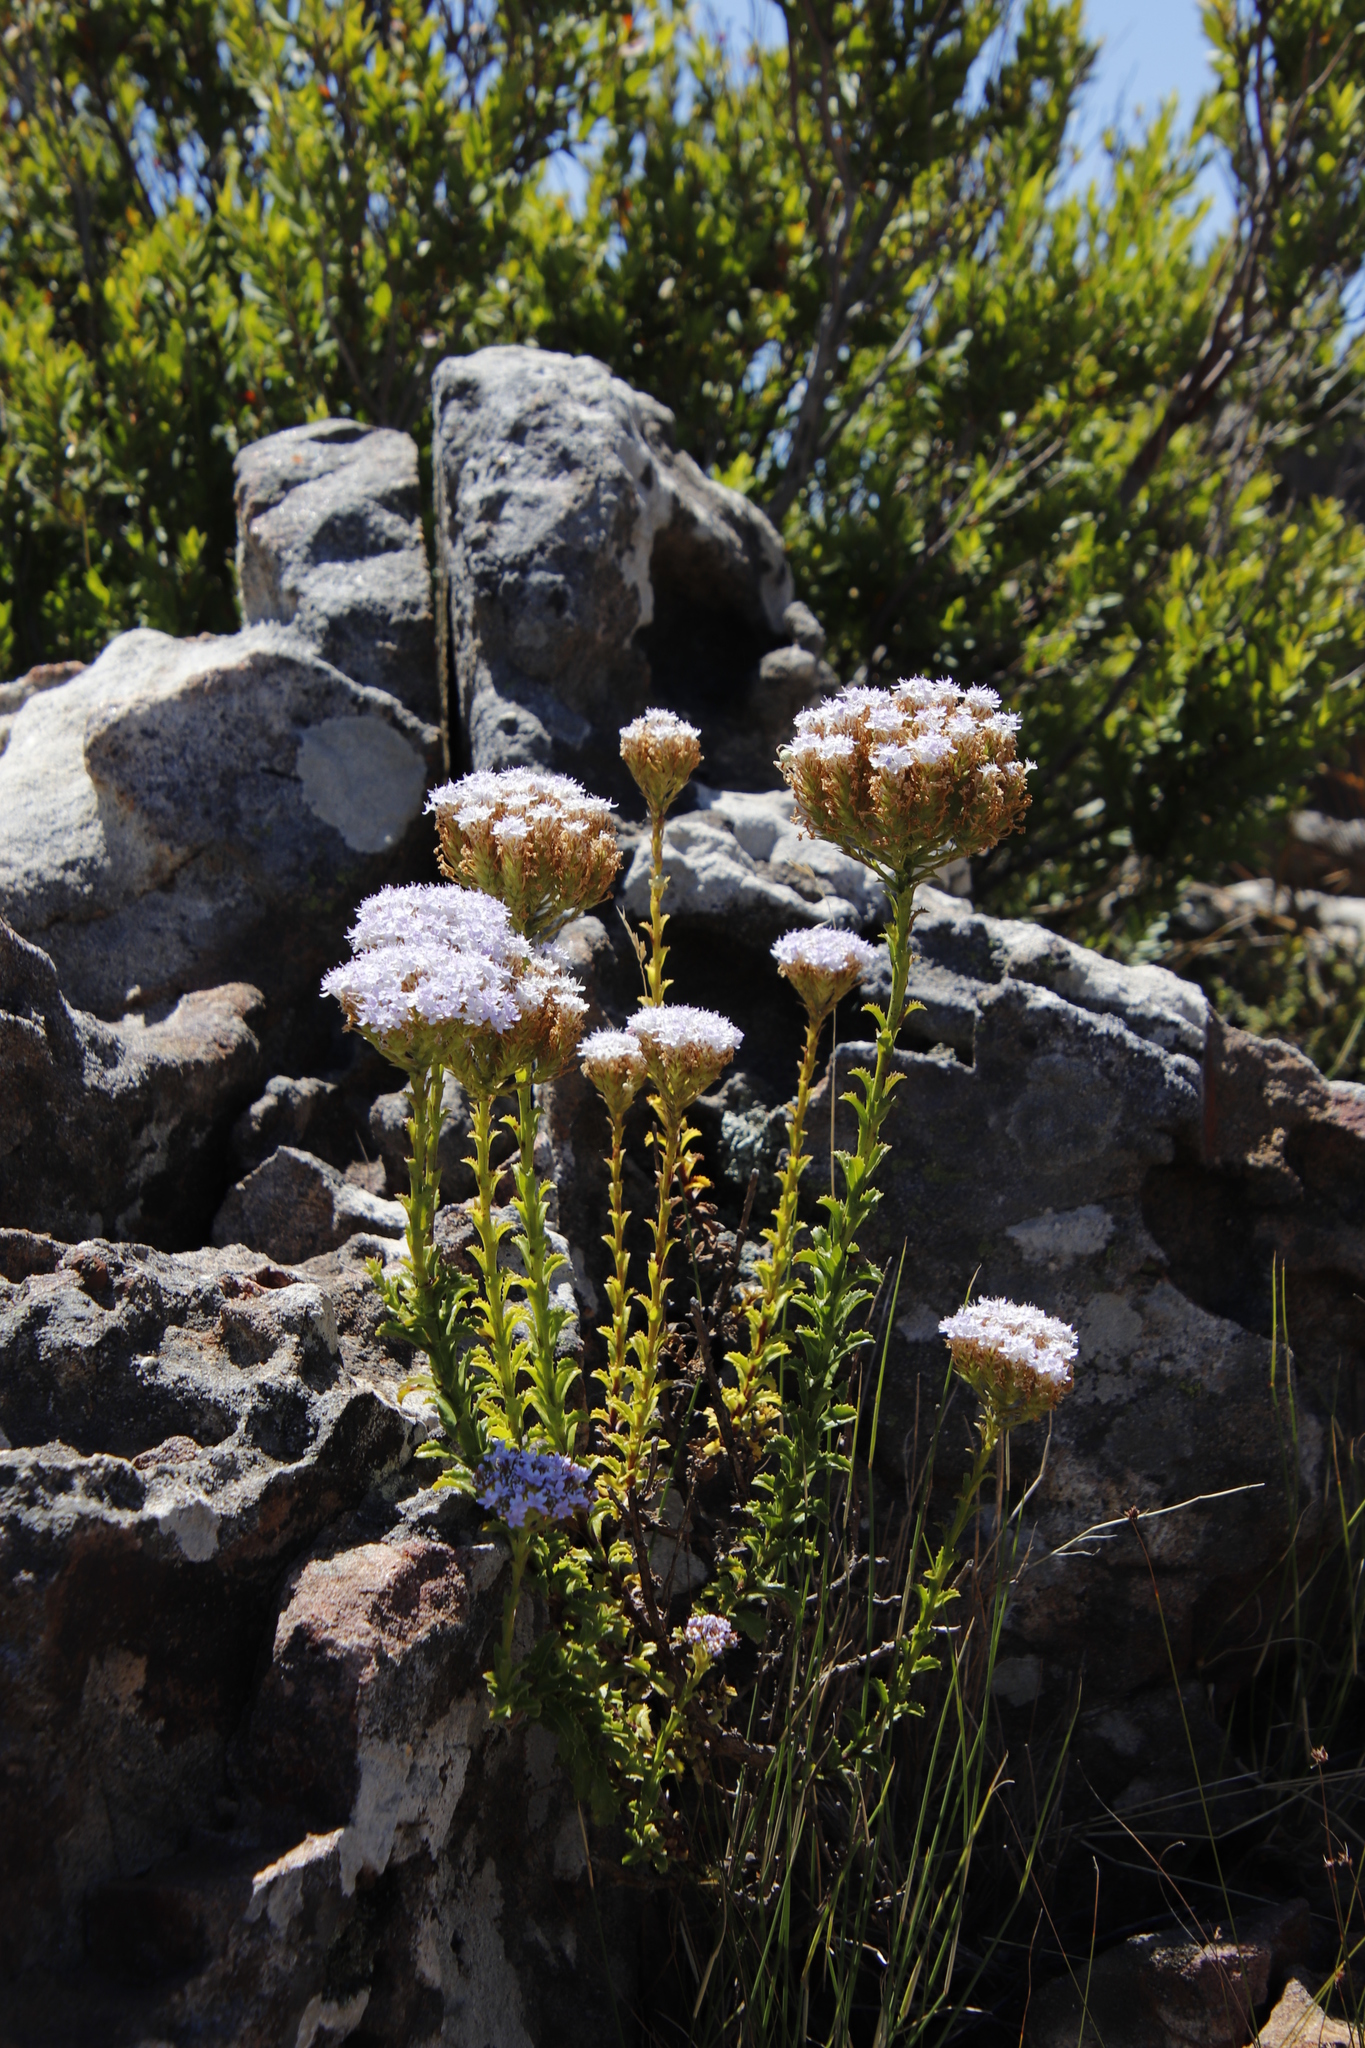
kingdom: Plantae
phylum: Tracheophyta
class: Magnoliopsida
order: Lamiales
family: Scrophulariaceae
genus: Pseudoselago
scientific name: Pseudoselago serrata
